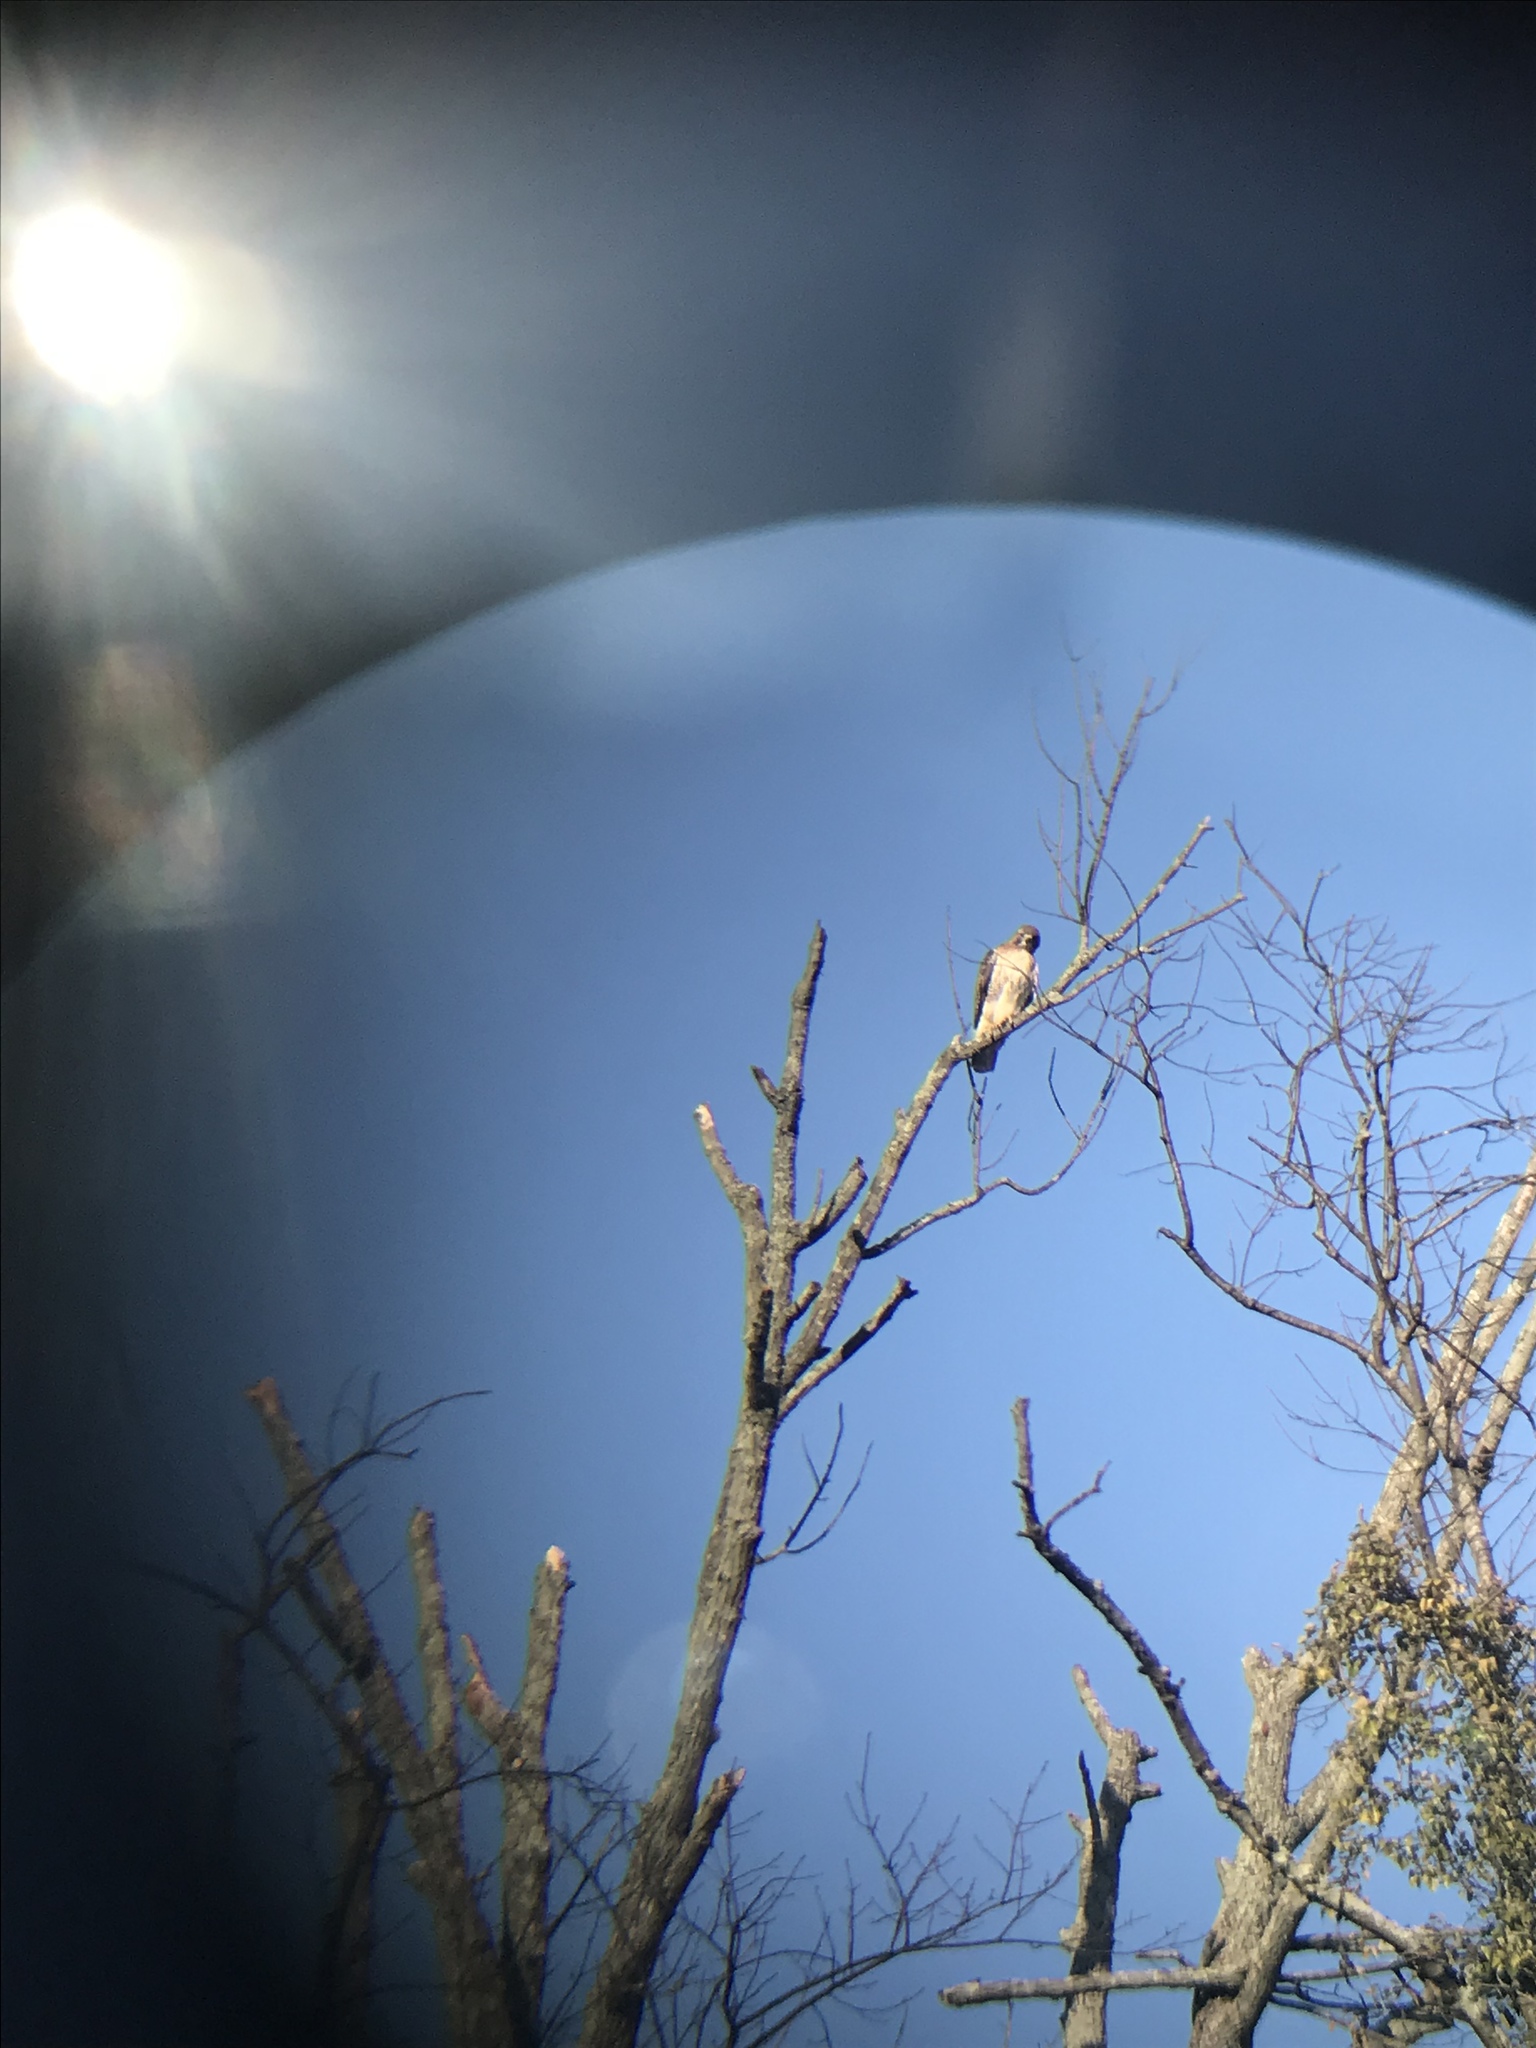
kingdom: Animalia
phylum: Chordata
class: Aves
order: Accipitriformes
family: Accipitridae
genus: Buteo
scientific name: Buteo jamaicensis
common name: Red-tailed hawk
